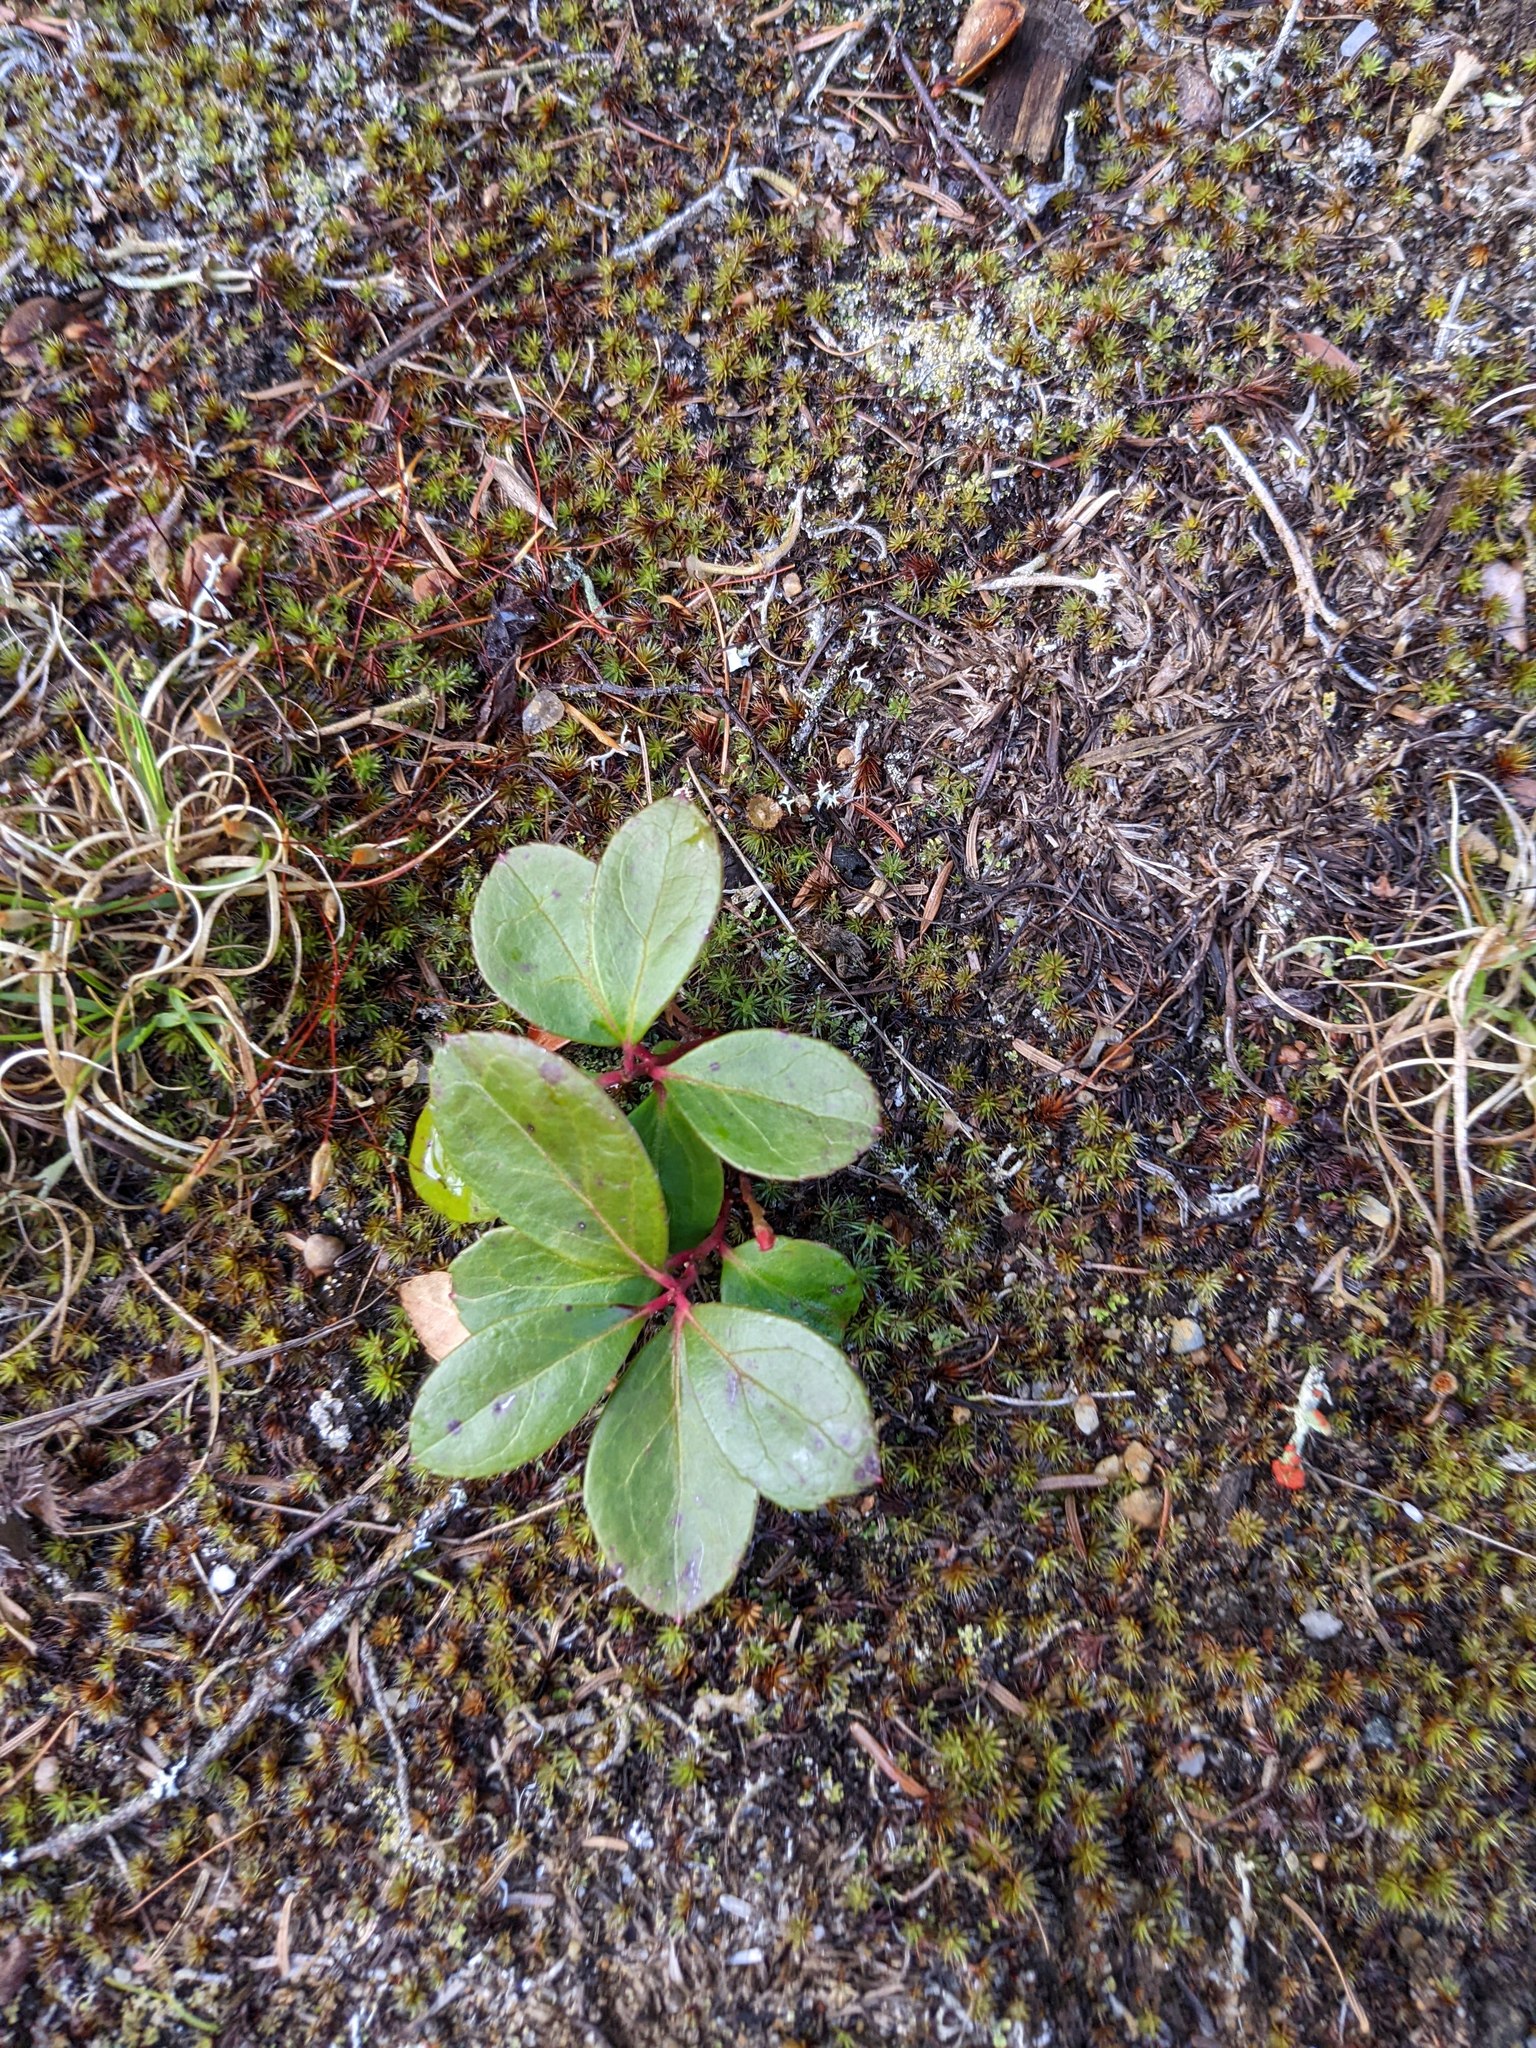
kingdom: Plantae
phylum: Tracheophyta
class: Magnoliopsida
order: Ericales
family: Ericaceae
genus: Gaultheria
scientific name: Gaultheria procumbens
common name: Checkerberry
